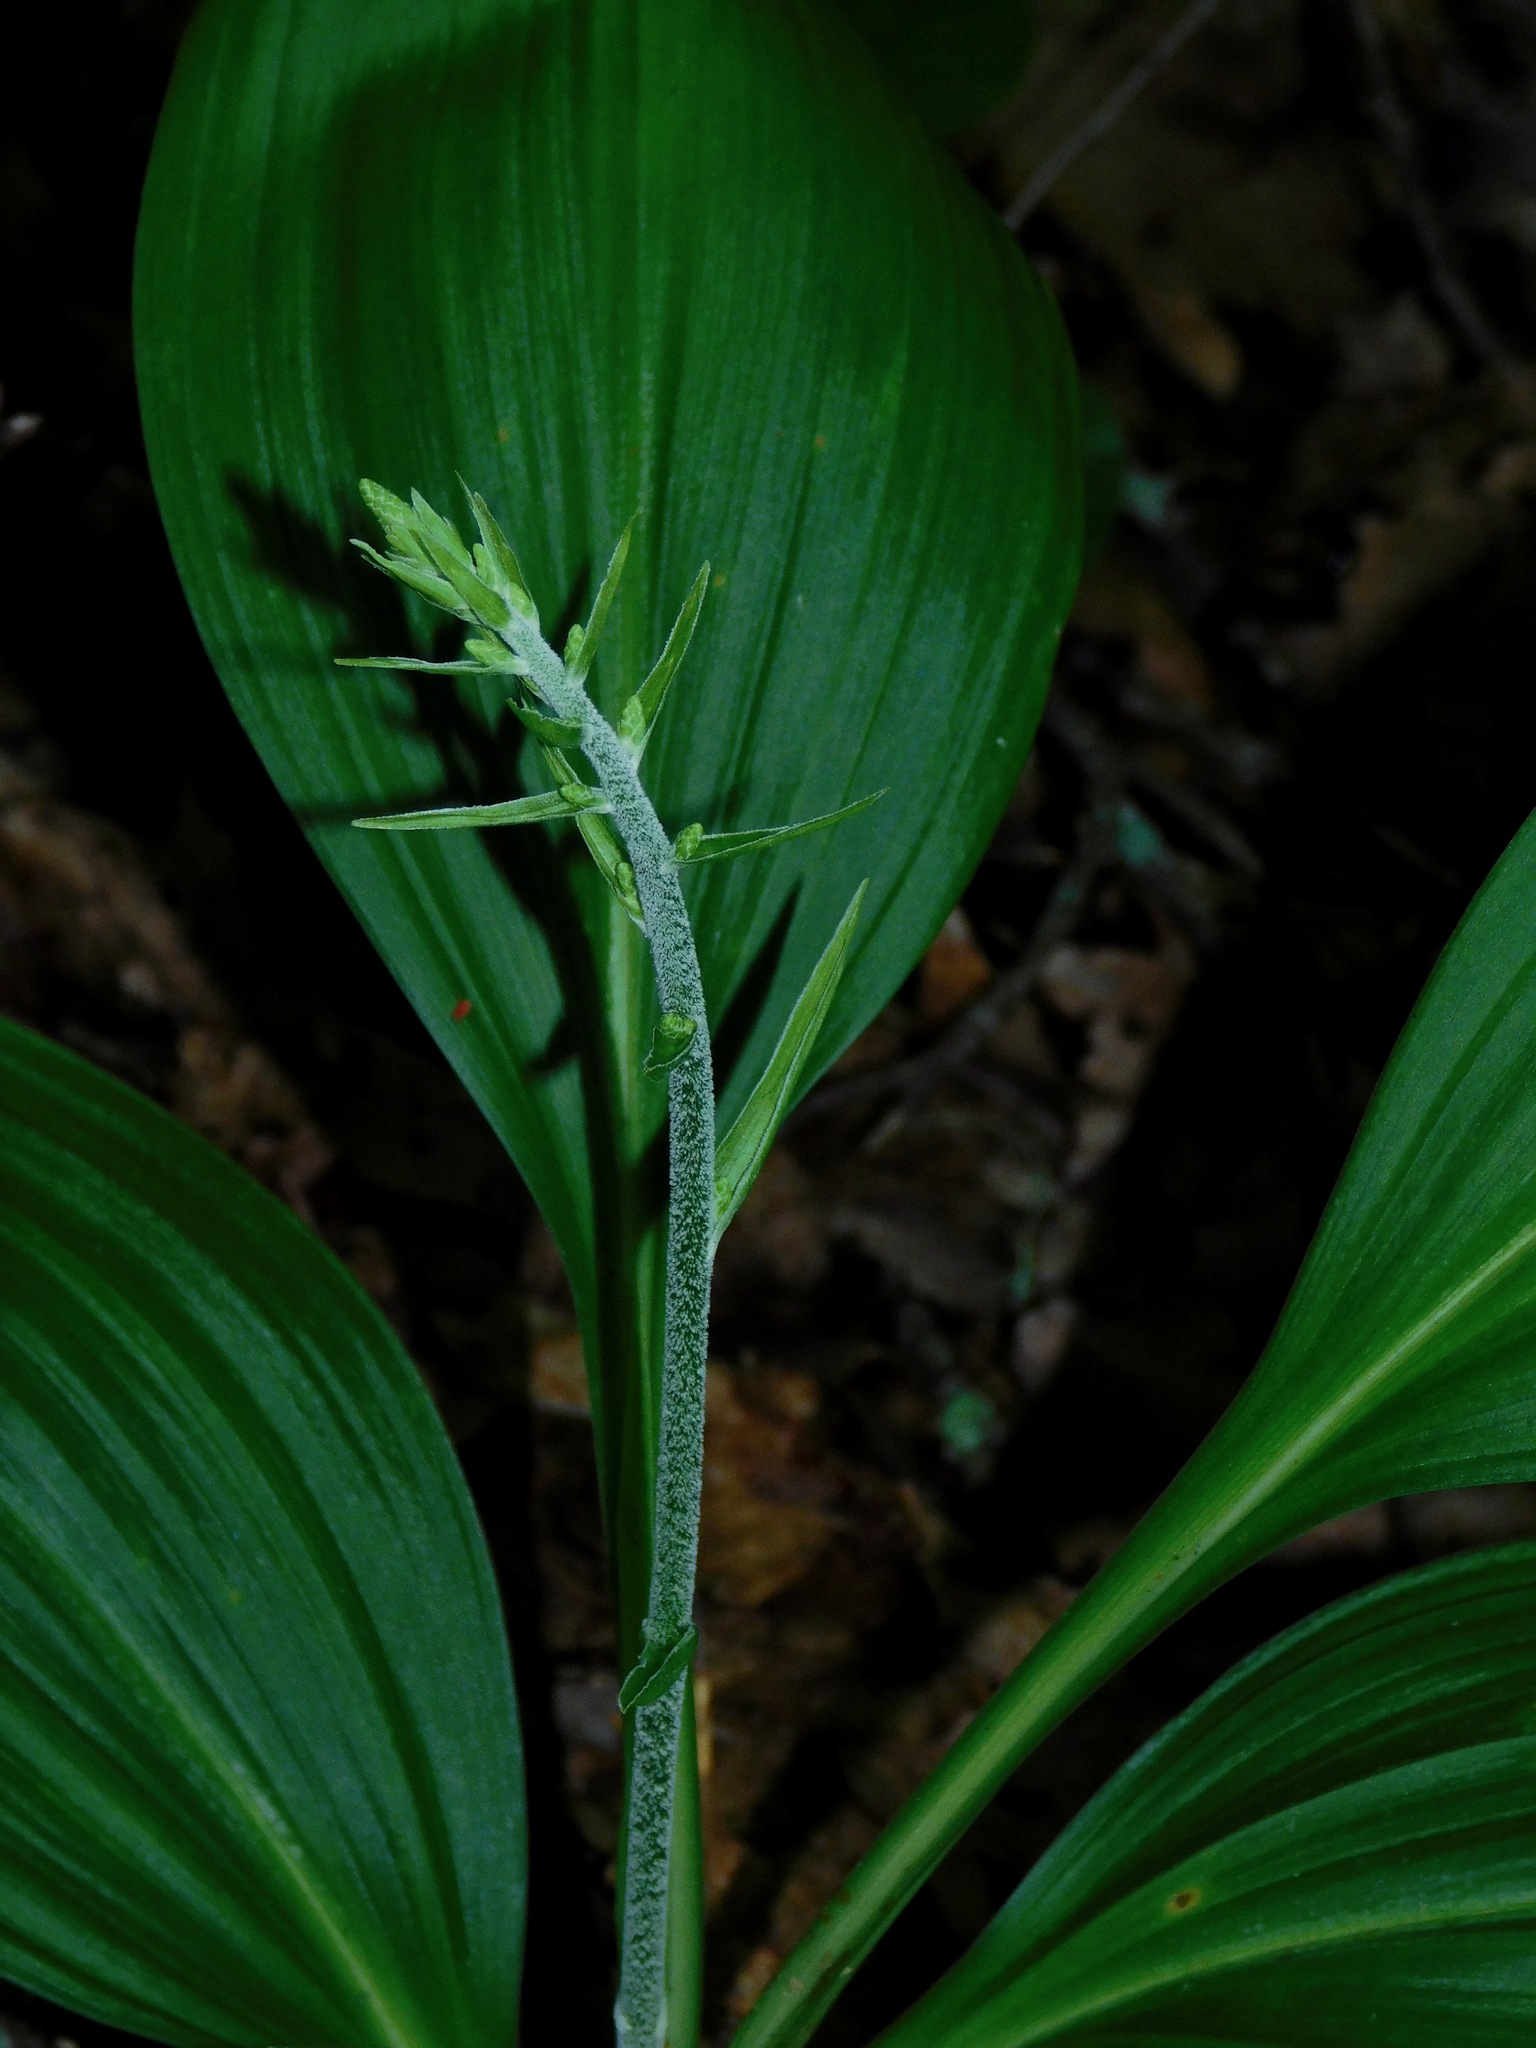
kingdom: Plantae
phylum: Tracheophyta
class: Liliopsida
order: Liliales
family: Melanthiaceae
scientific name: Melanthiaceae
